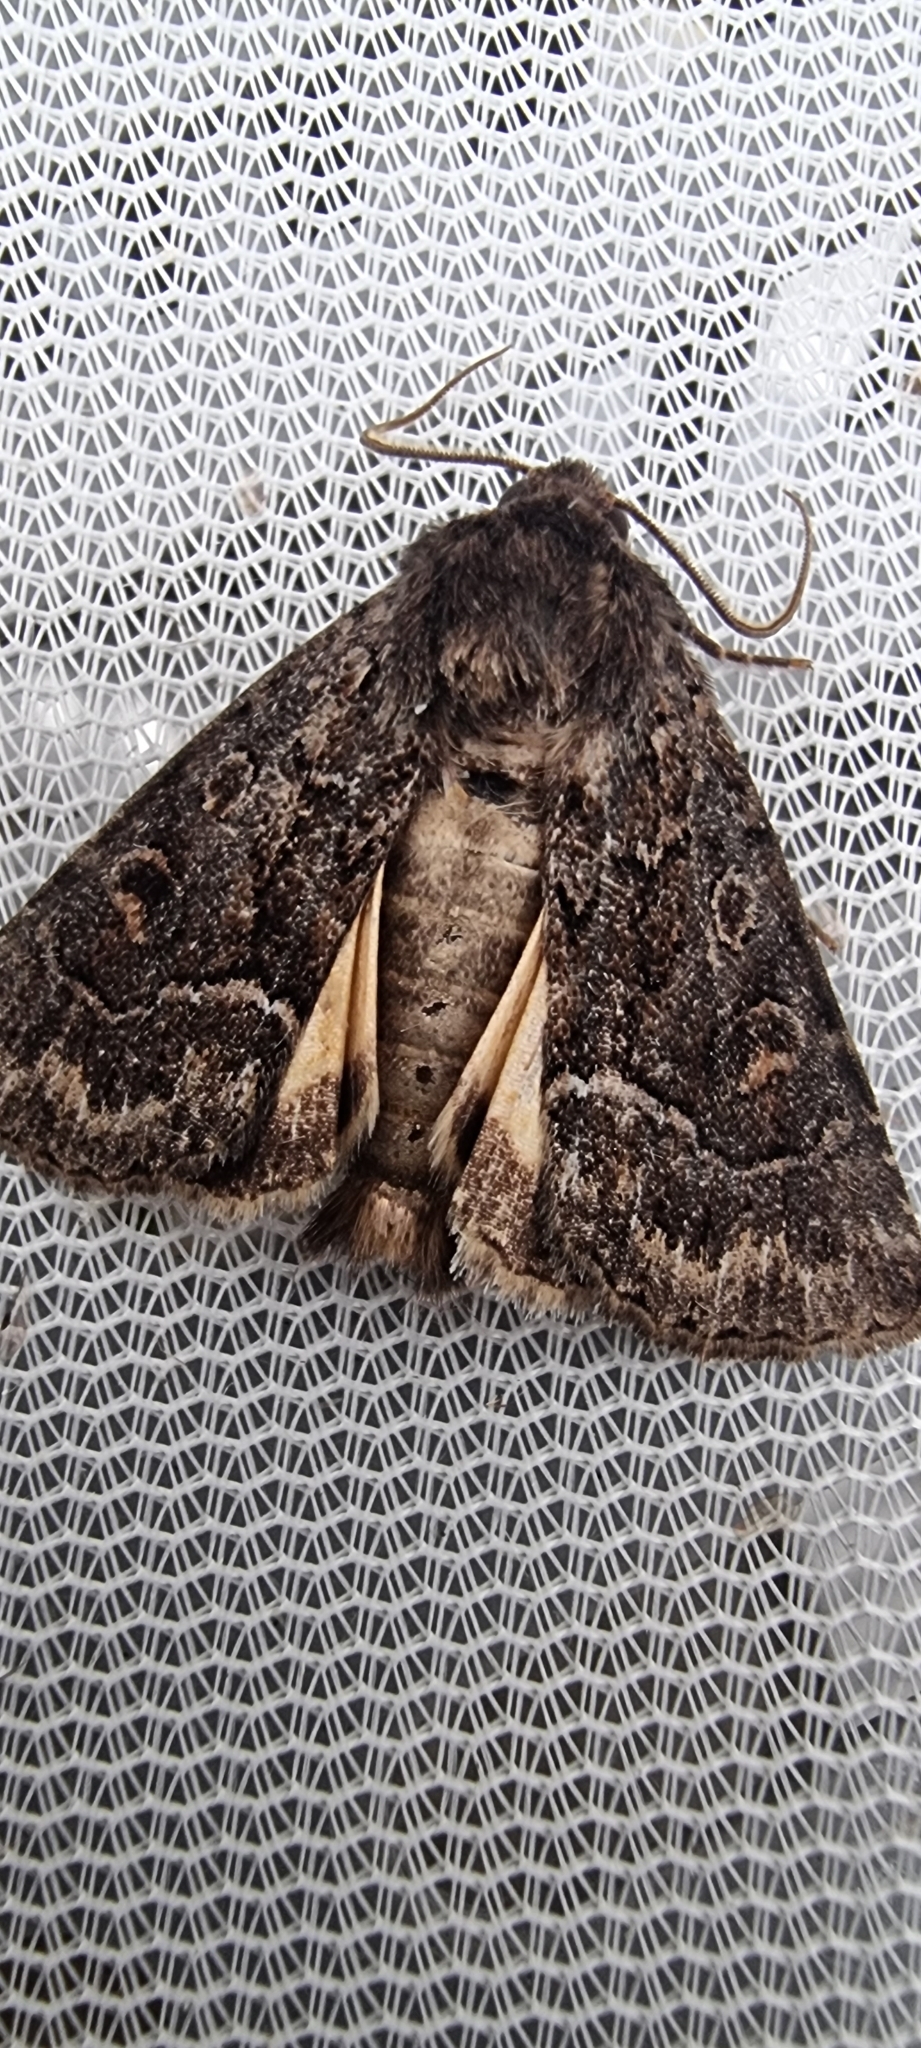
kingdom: Animalia
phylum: Arthropoda
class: Insecta
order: Lepidoptera
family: Noctuidae
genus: Thalpophila
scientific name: Thalpophila matura
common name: Straw underwing
